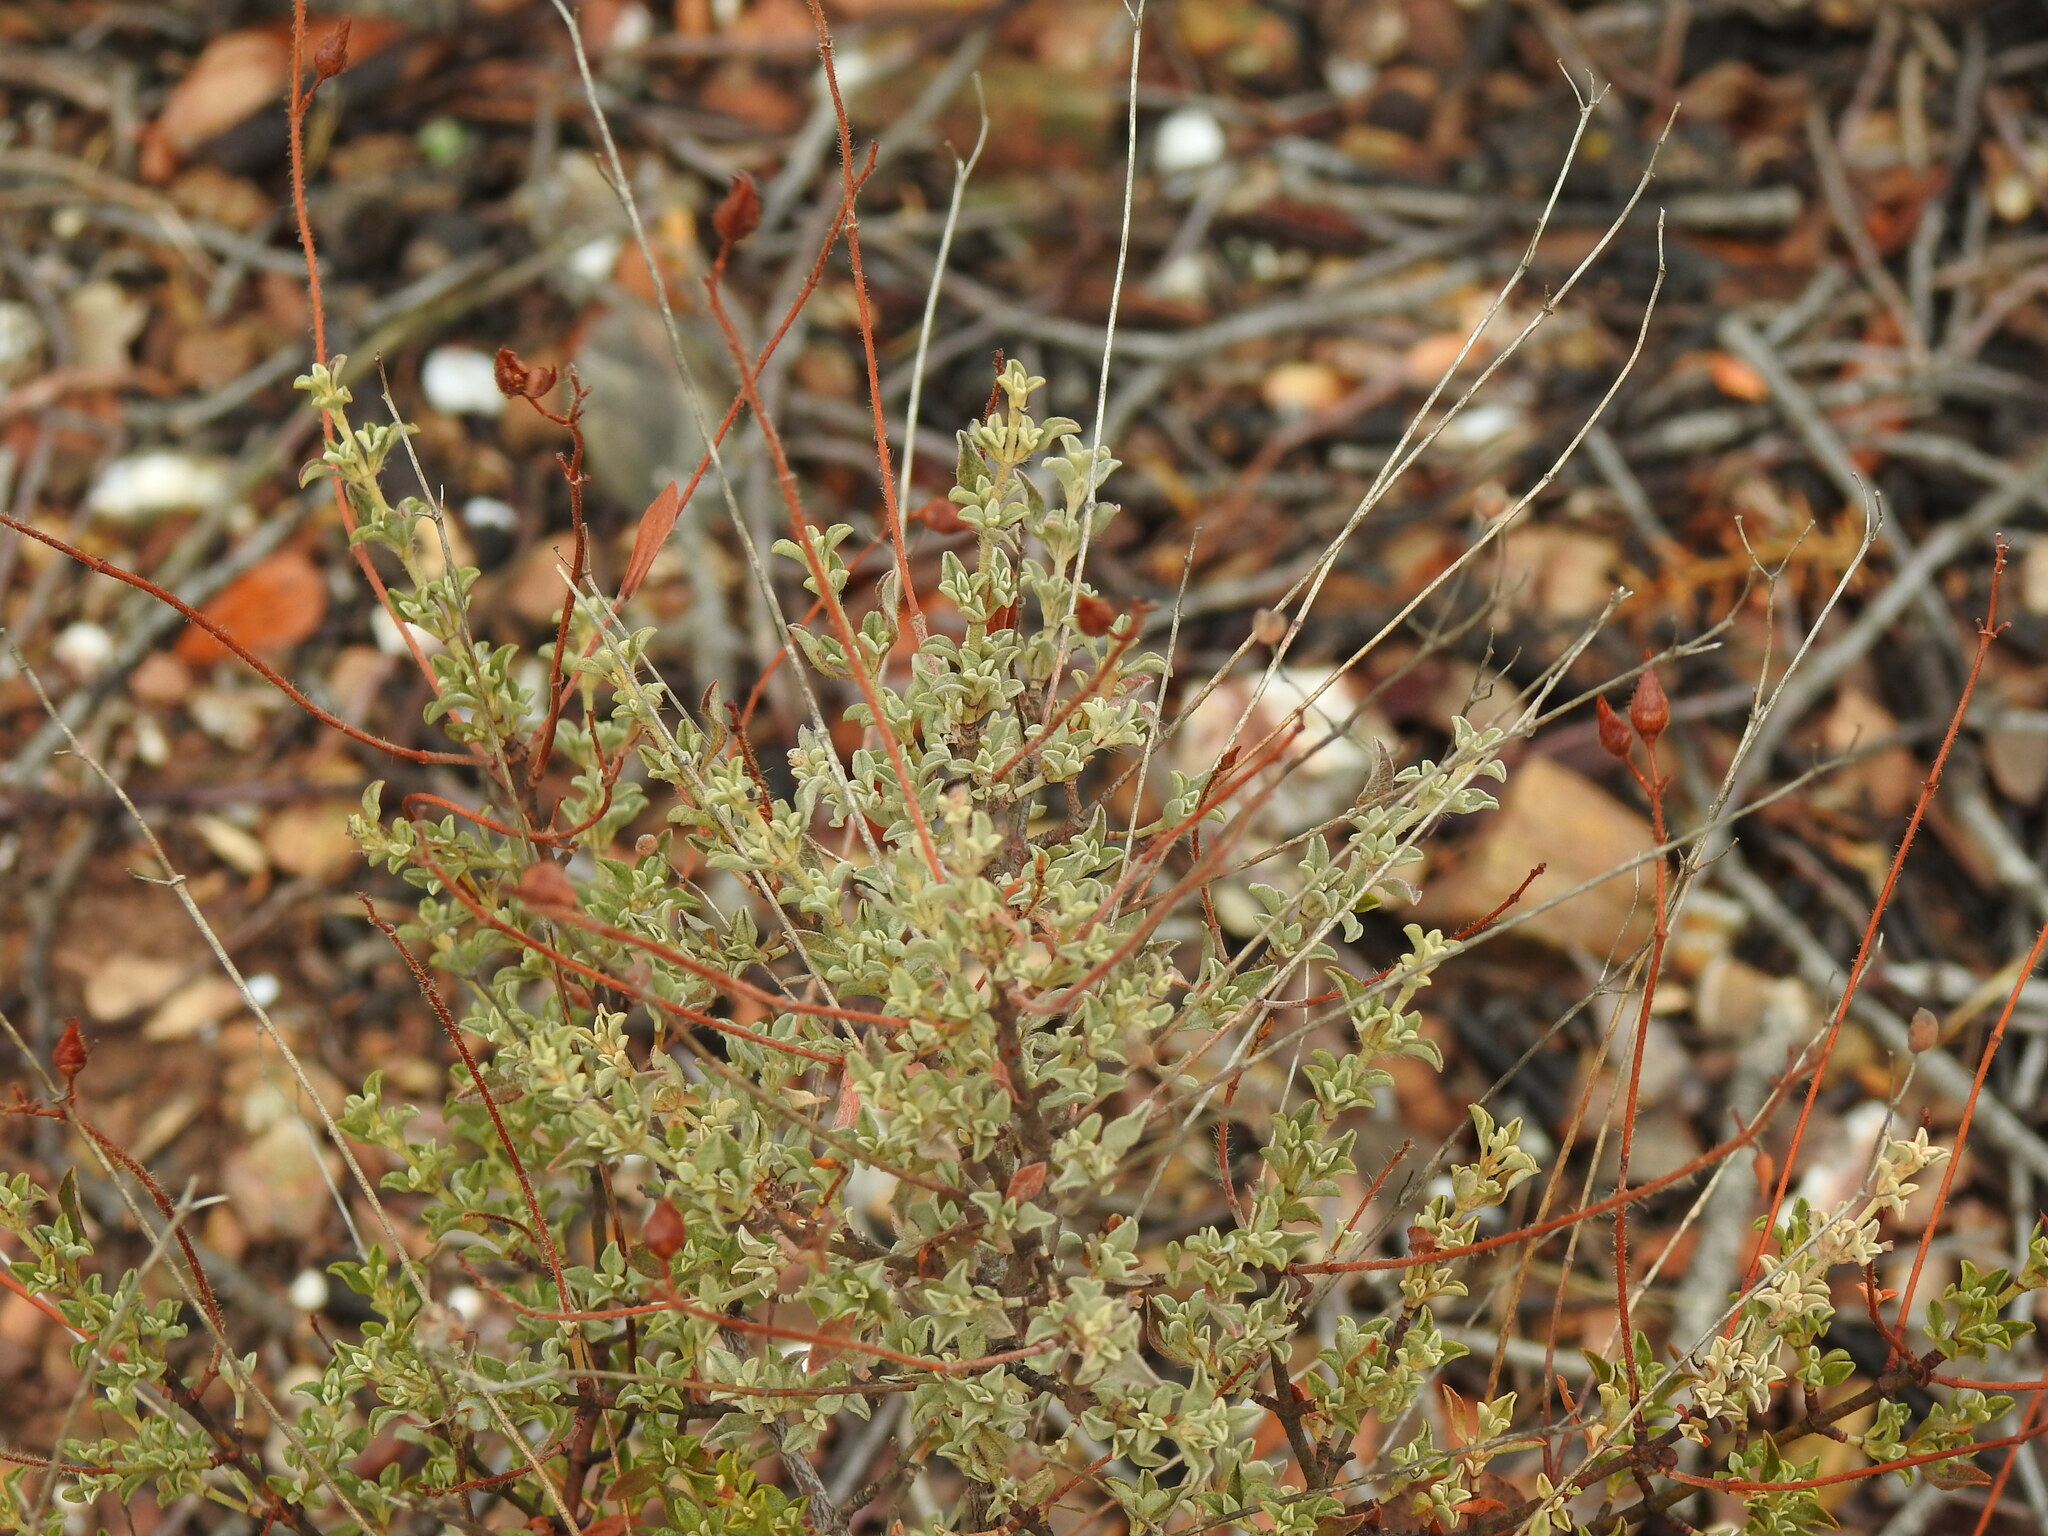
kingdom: Plantae
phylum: Tracheophyta
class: Magnoliopsida
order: Malvales
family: Cistaceae
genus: Cistus
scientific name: Cistus ocymoides
